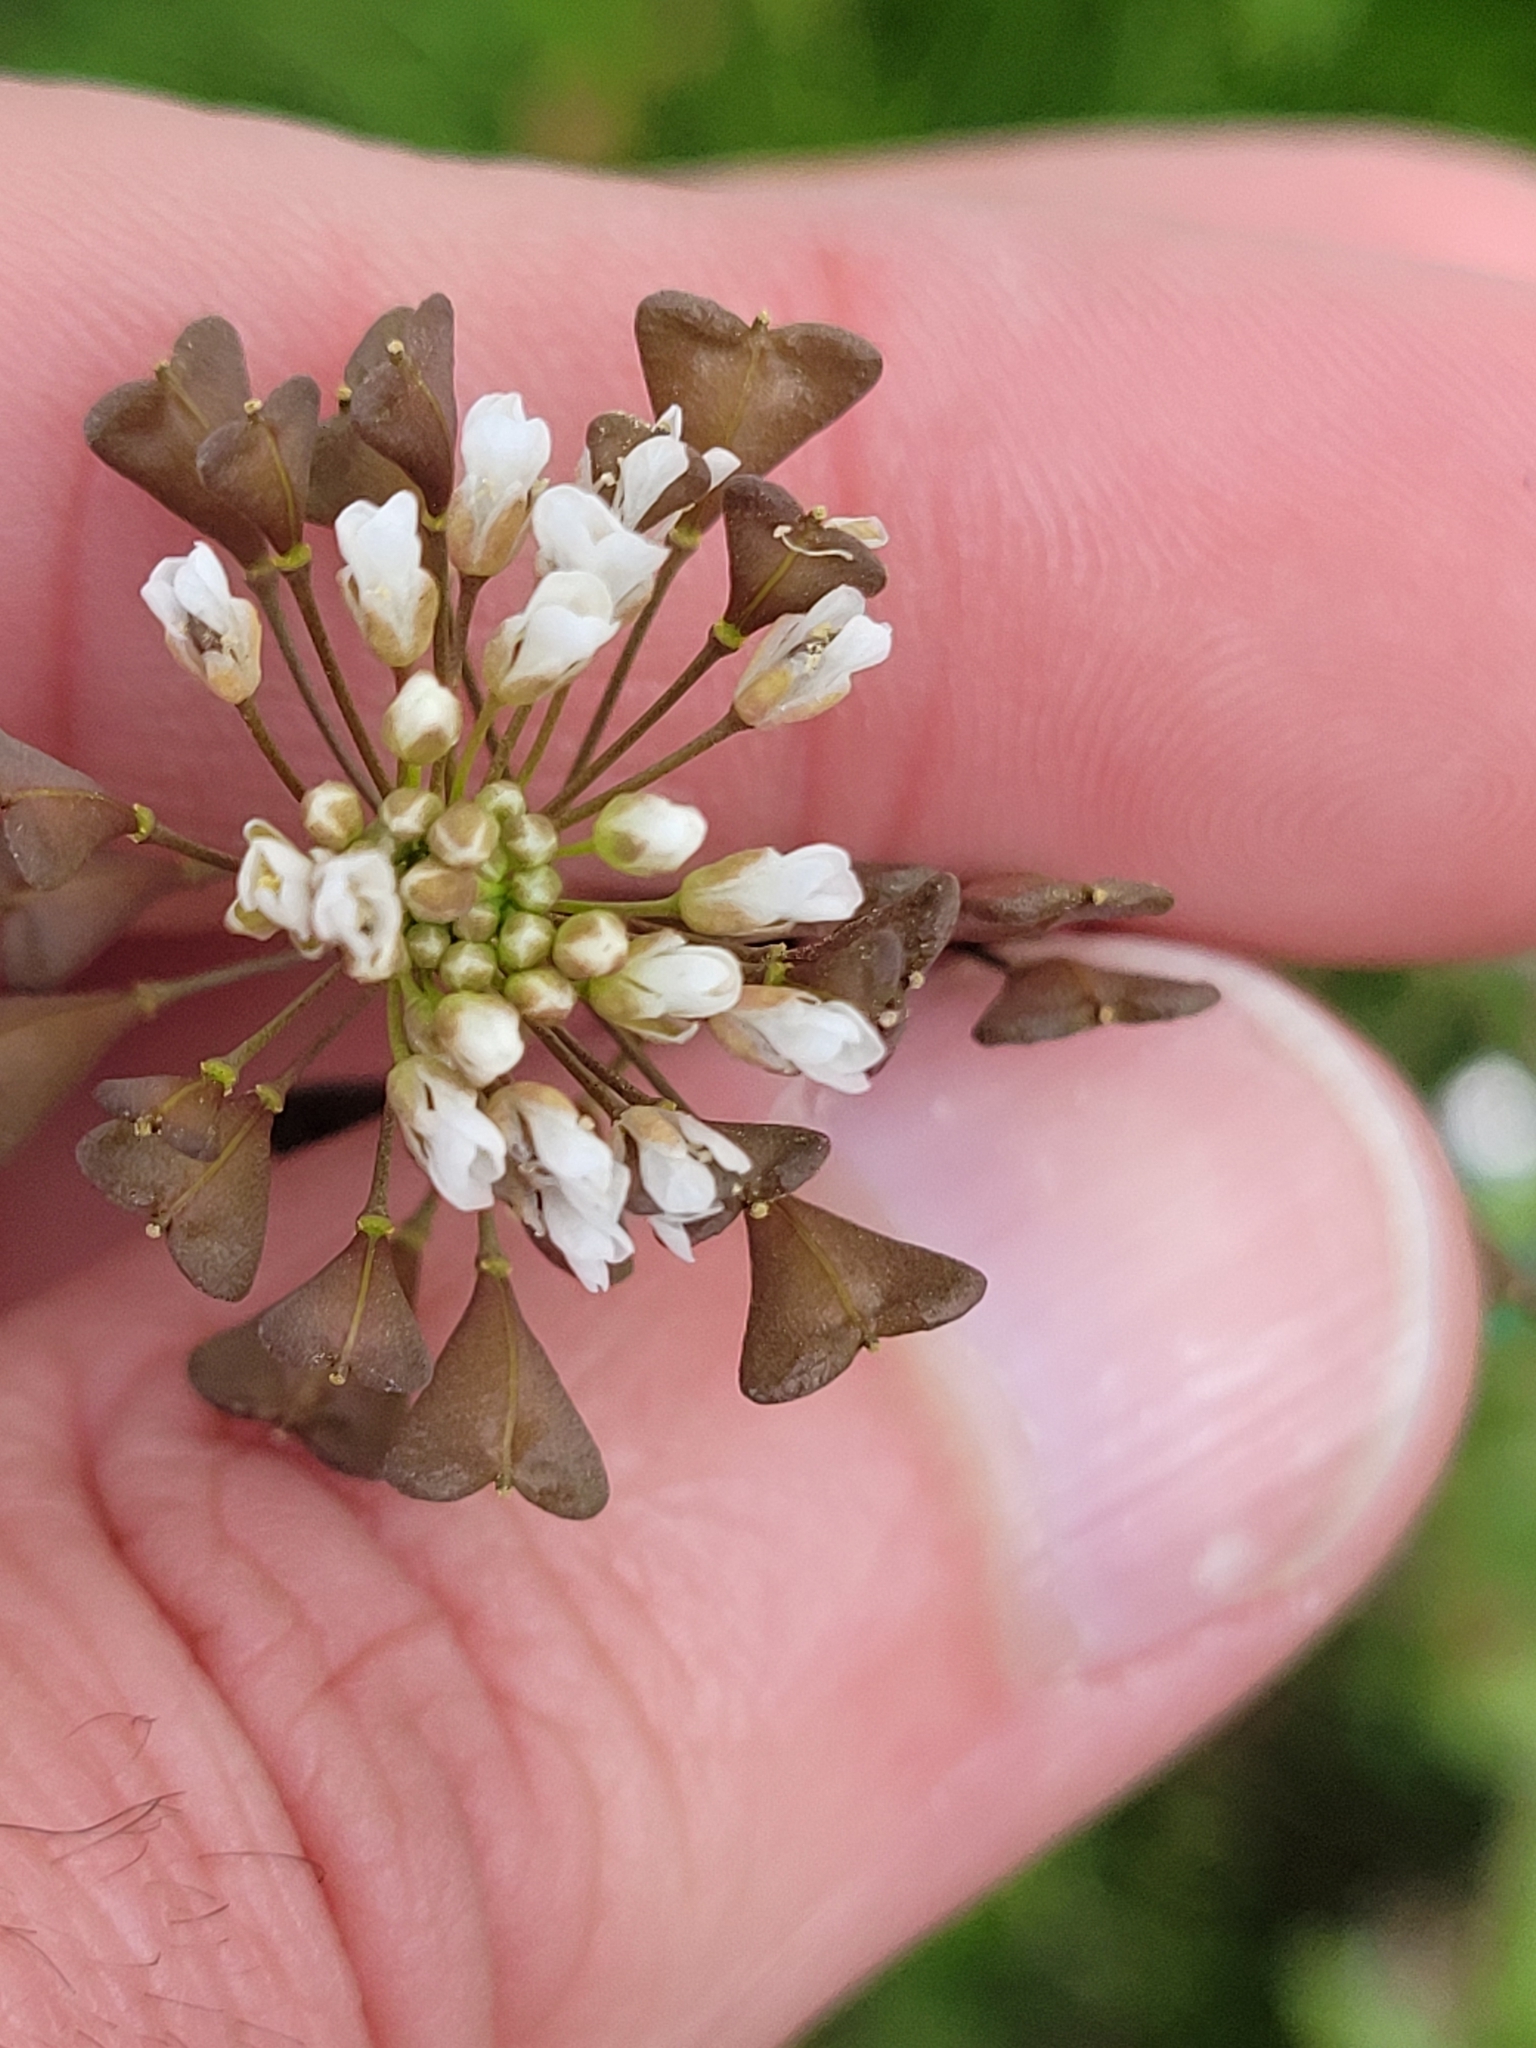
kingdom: Plantae
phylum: Tracheophyta
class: Magnoliopsida
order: Brassicales
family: Brassicaceae
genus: Capsella
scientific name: Capsella bursa-pastoris
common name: Shepherd's purse
